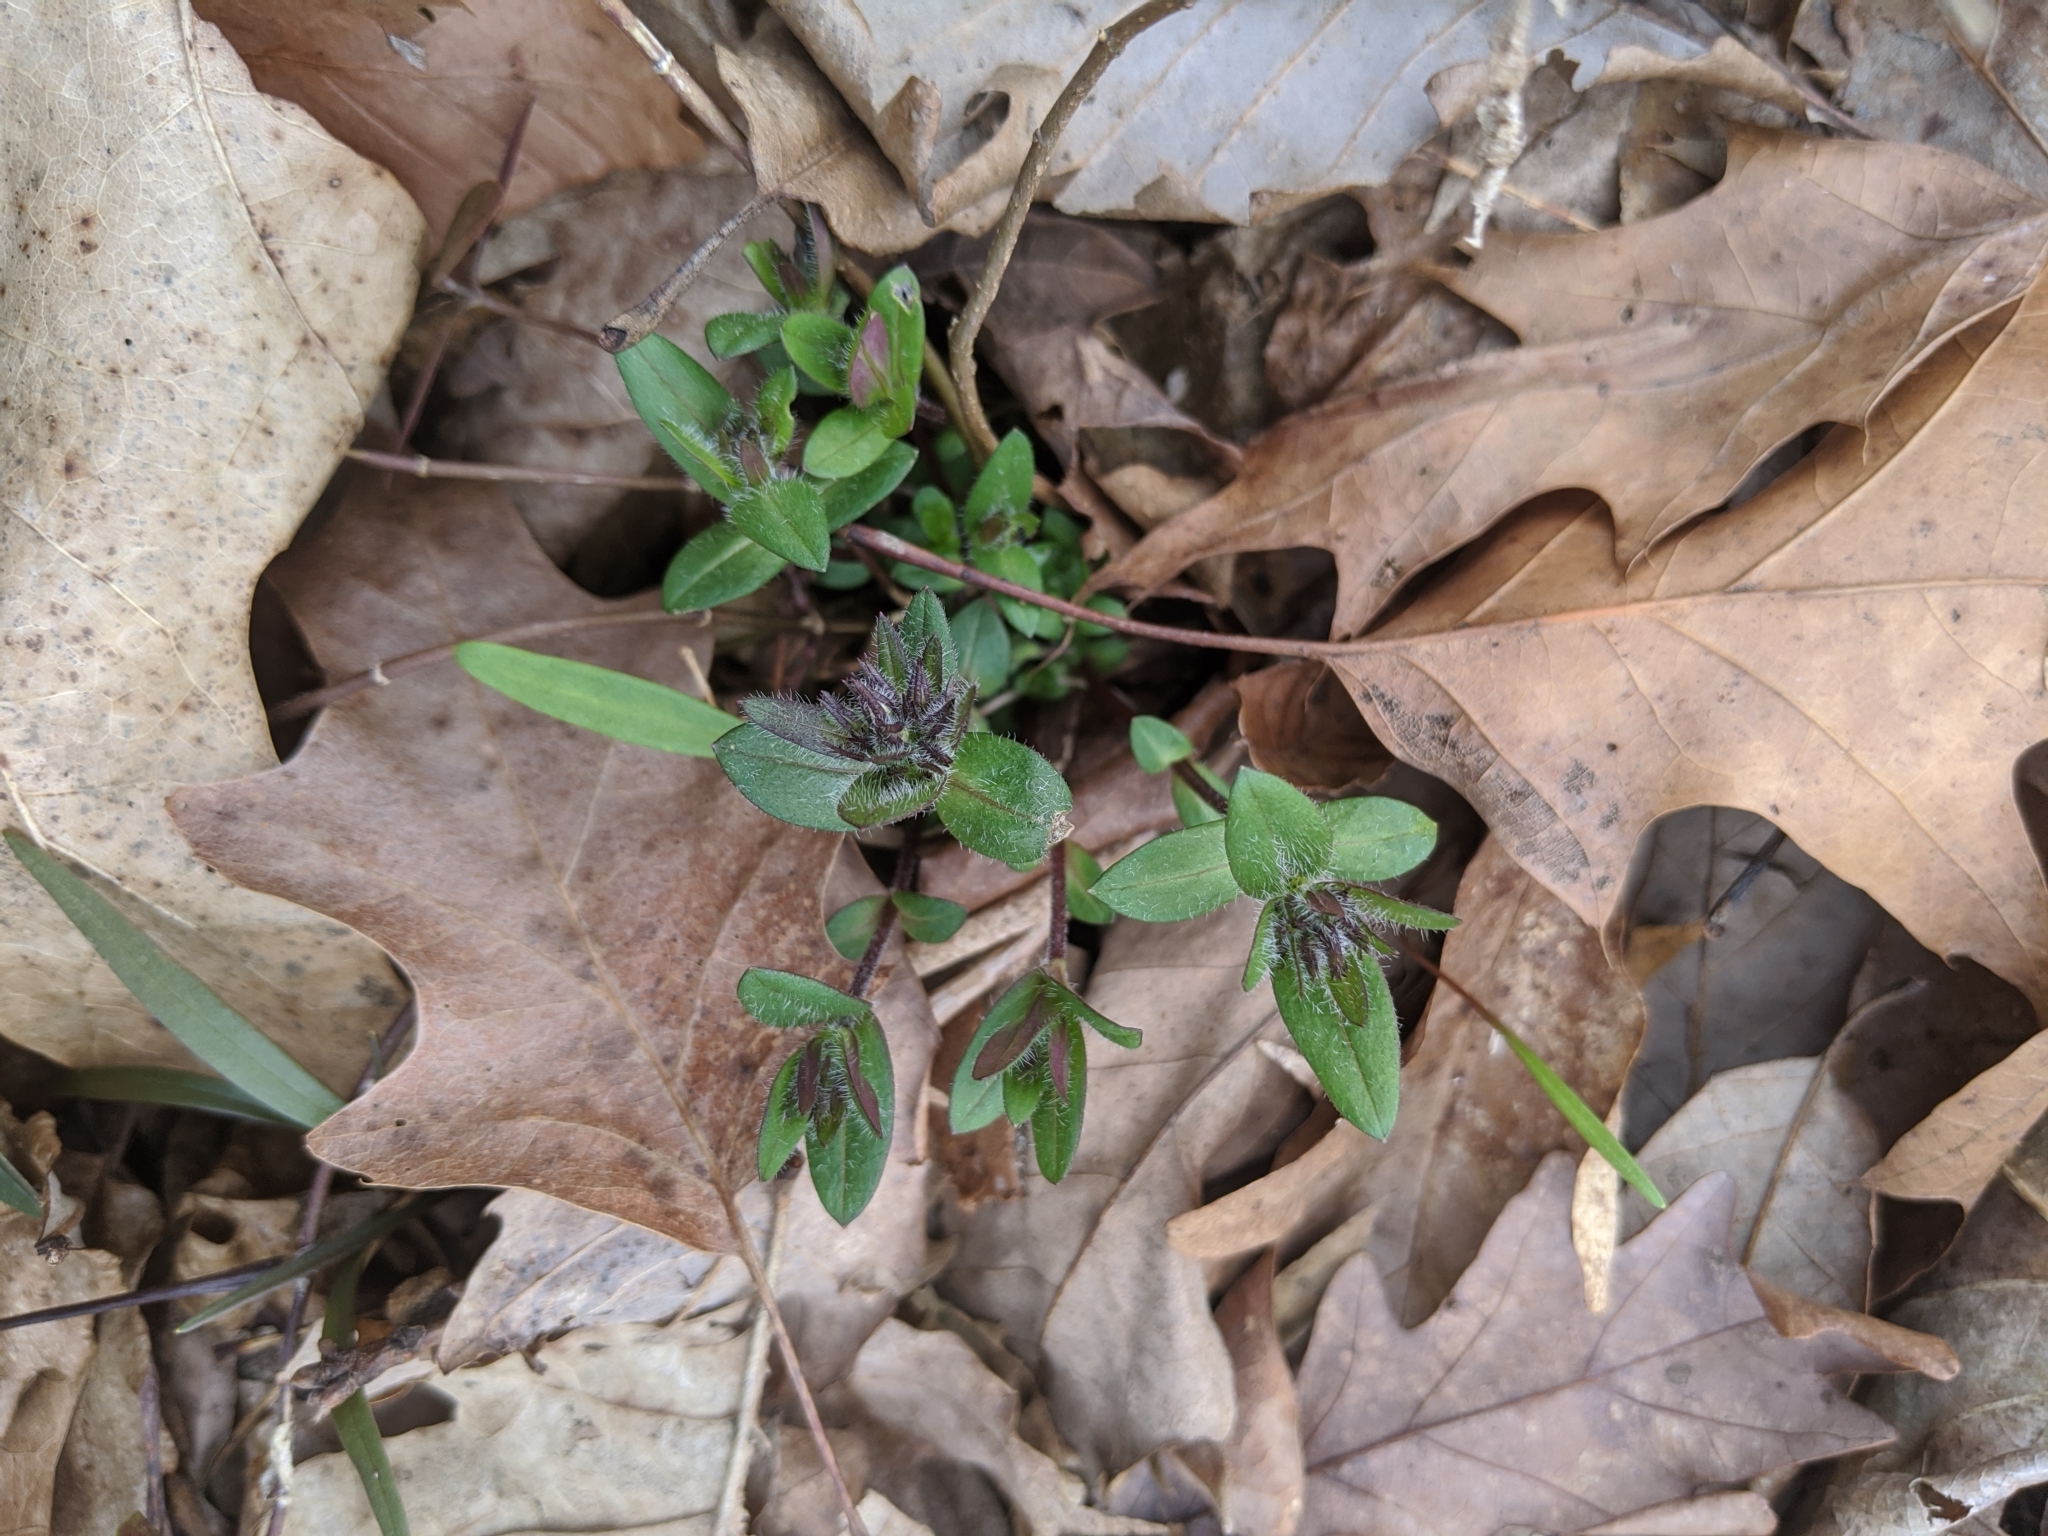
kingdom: Plantae
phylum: Tracheophyta
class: Magnoliopsida
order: Ericales
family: Polemoniaceae
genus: Phlox
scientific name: Phlox divaricata
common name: Blue phlox
